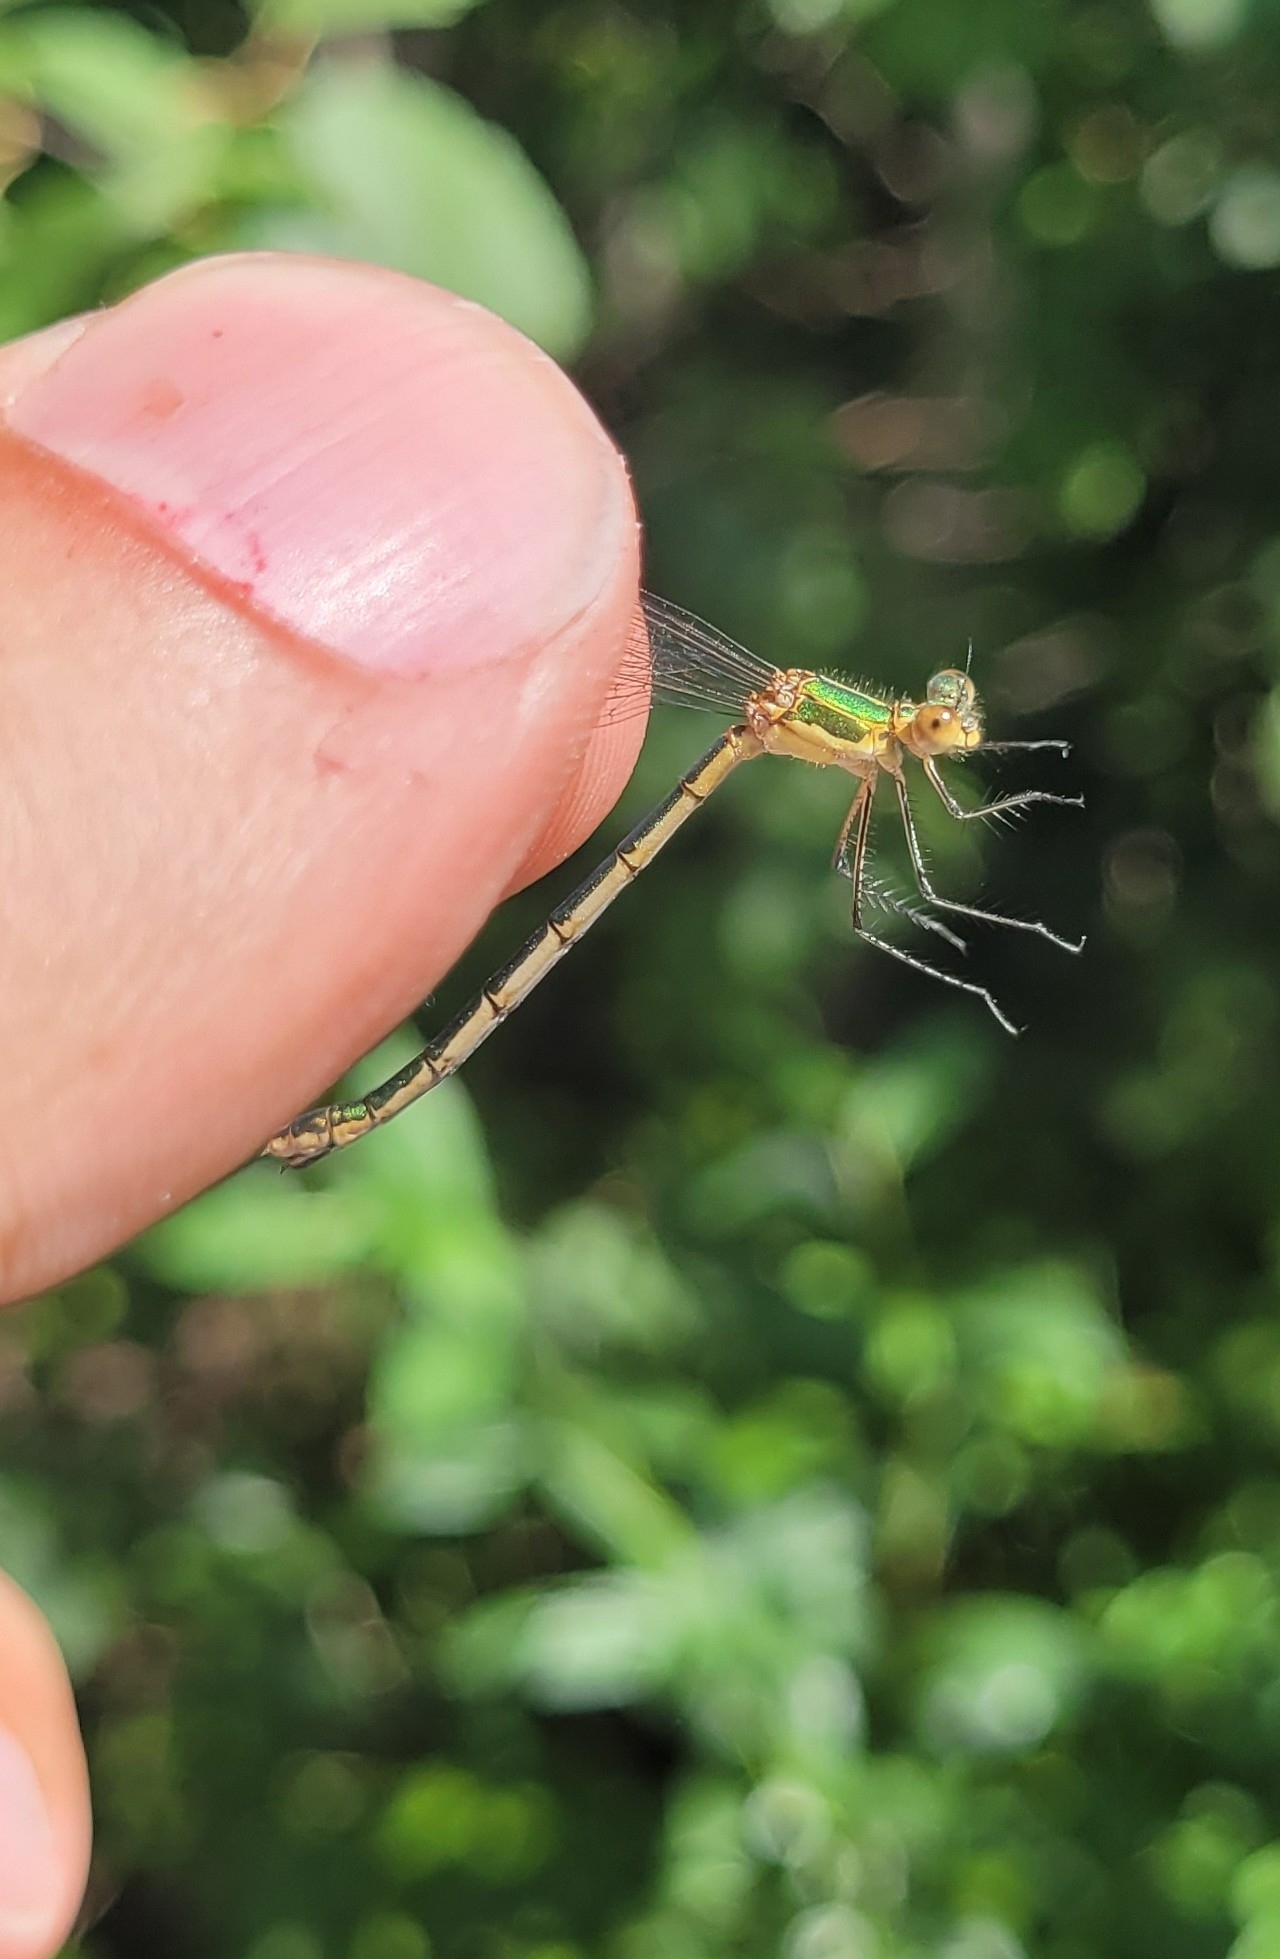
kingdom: Animalia
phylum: Arthropoda
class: Insecta
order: Odonata
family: Lestidae
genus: Lestes
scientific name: Lestes sponsa
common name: Common spreadwing
